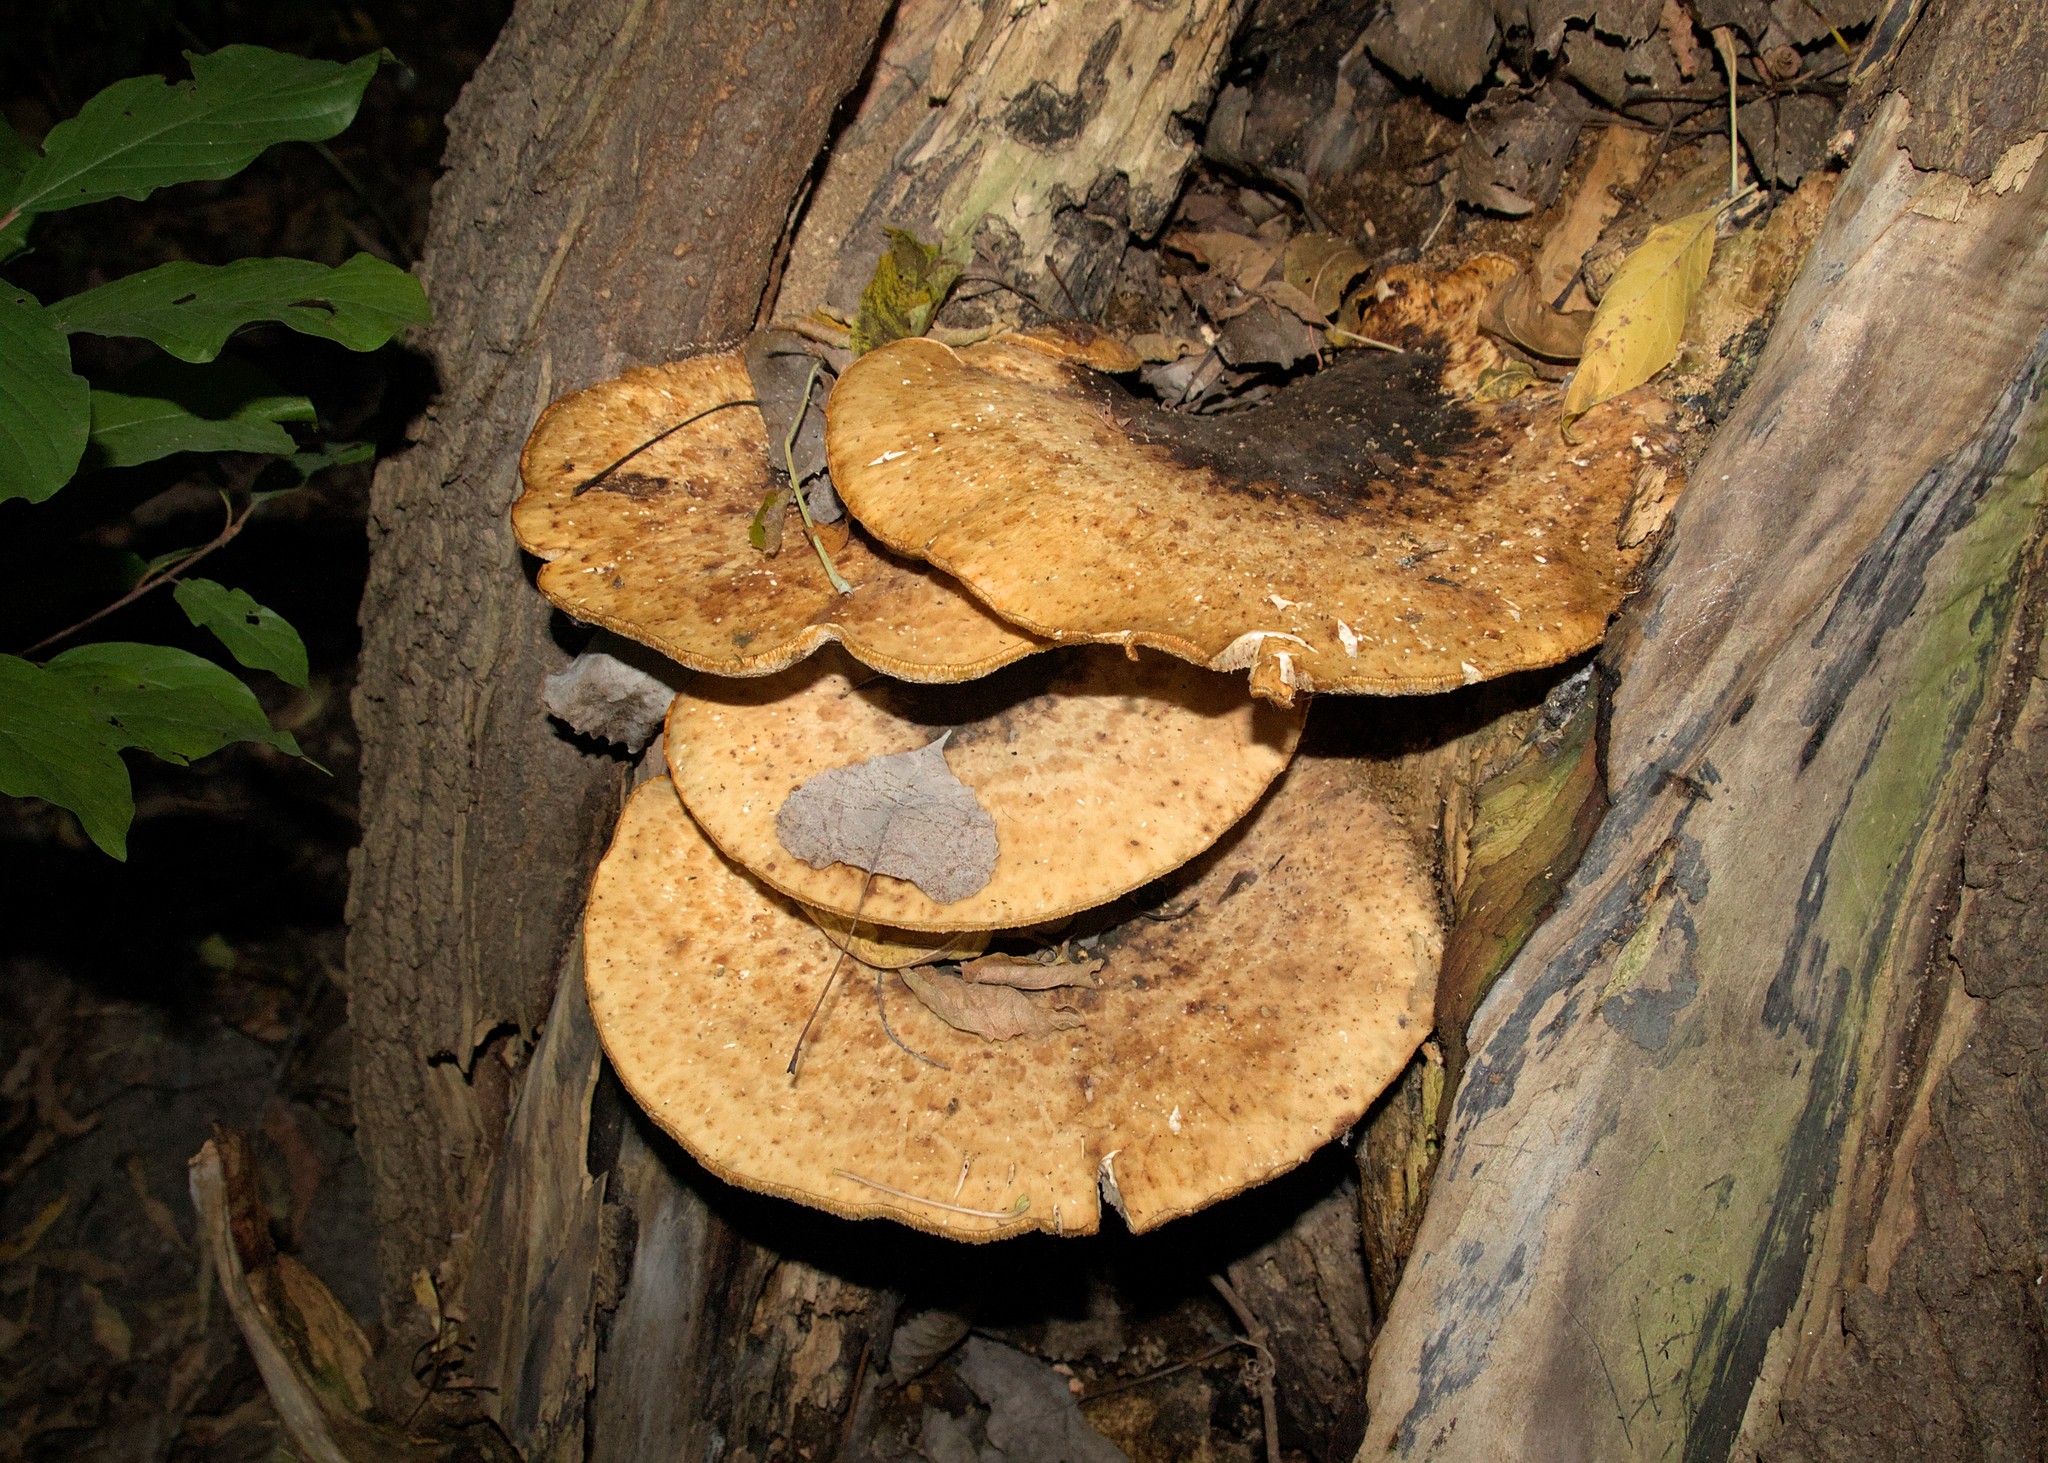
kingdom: Fungi
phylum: Basidiomycota
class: Agaricomycetes
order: Polyporales
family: Polyporaceae
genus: Cerioporus
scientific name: Cerioporus squamosus
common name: Dryad's saddle
